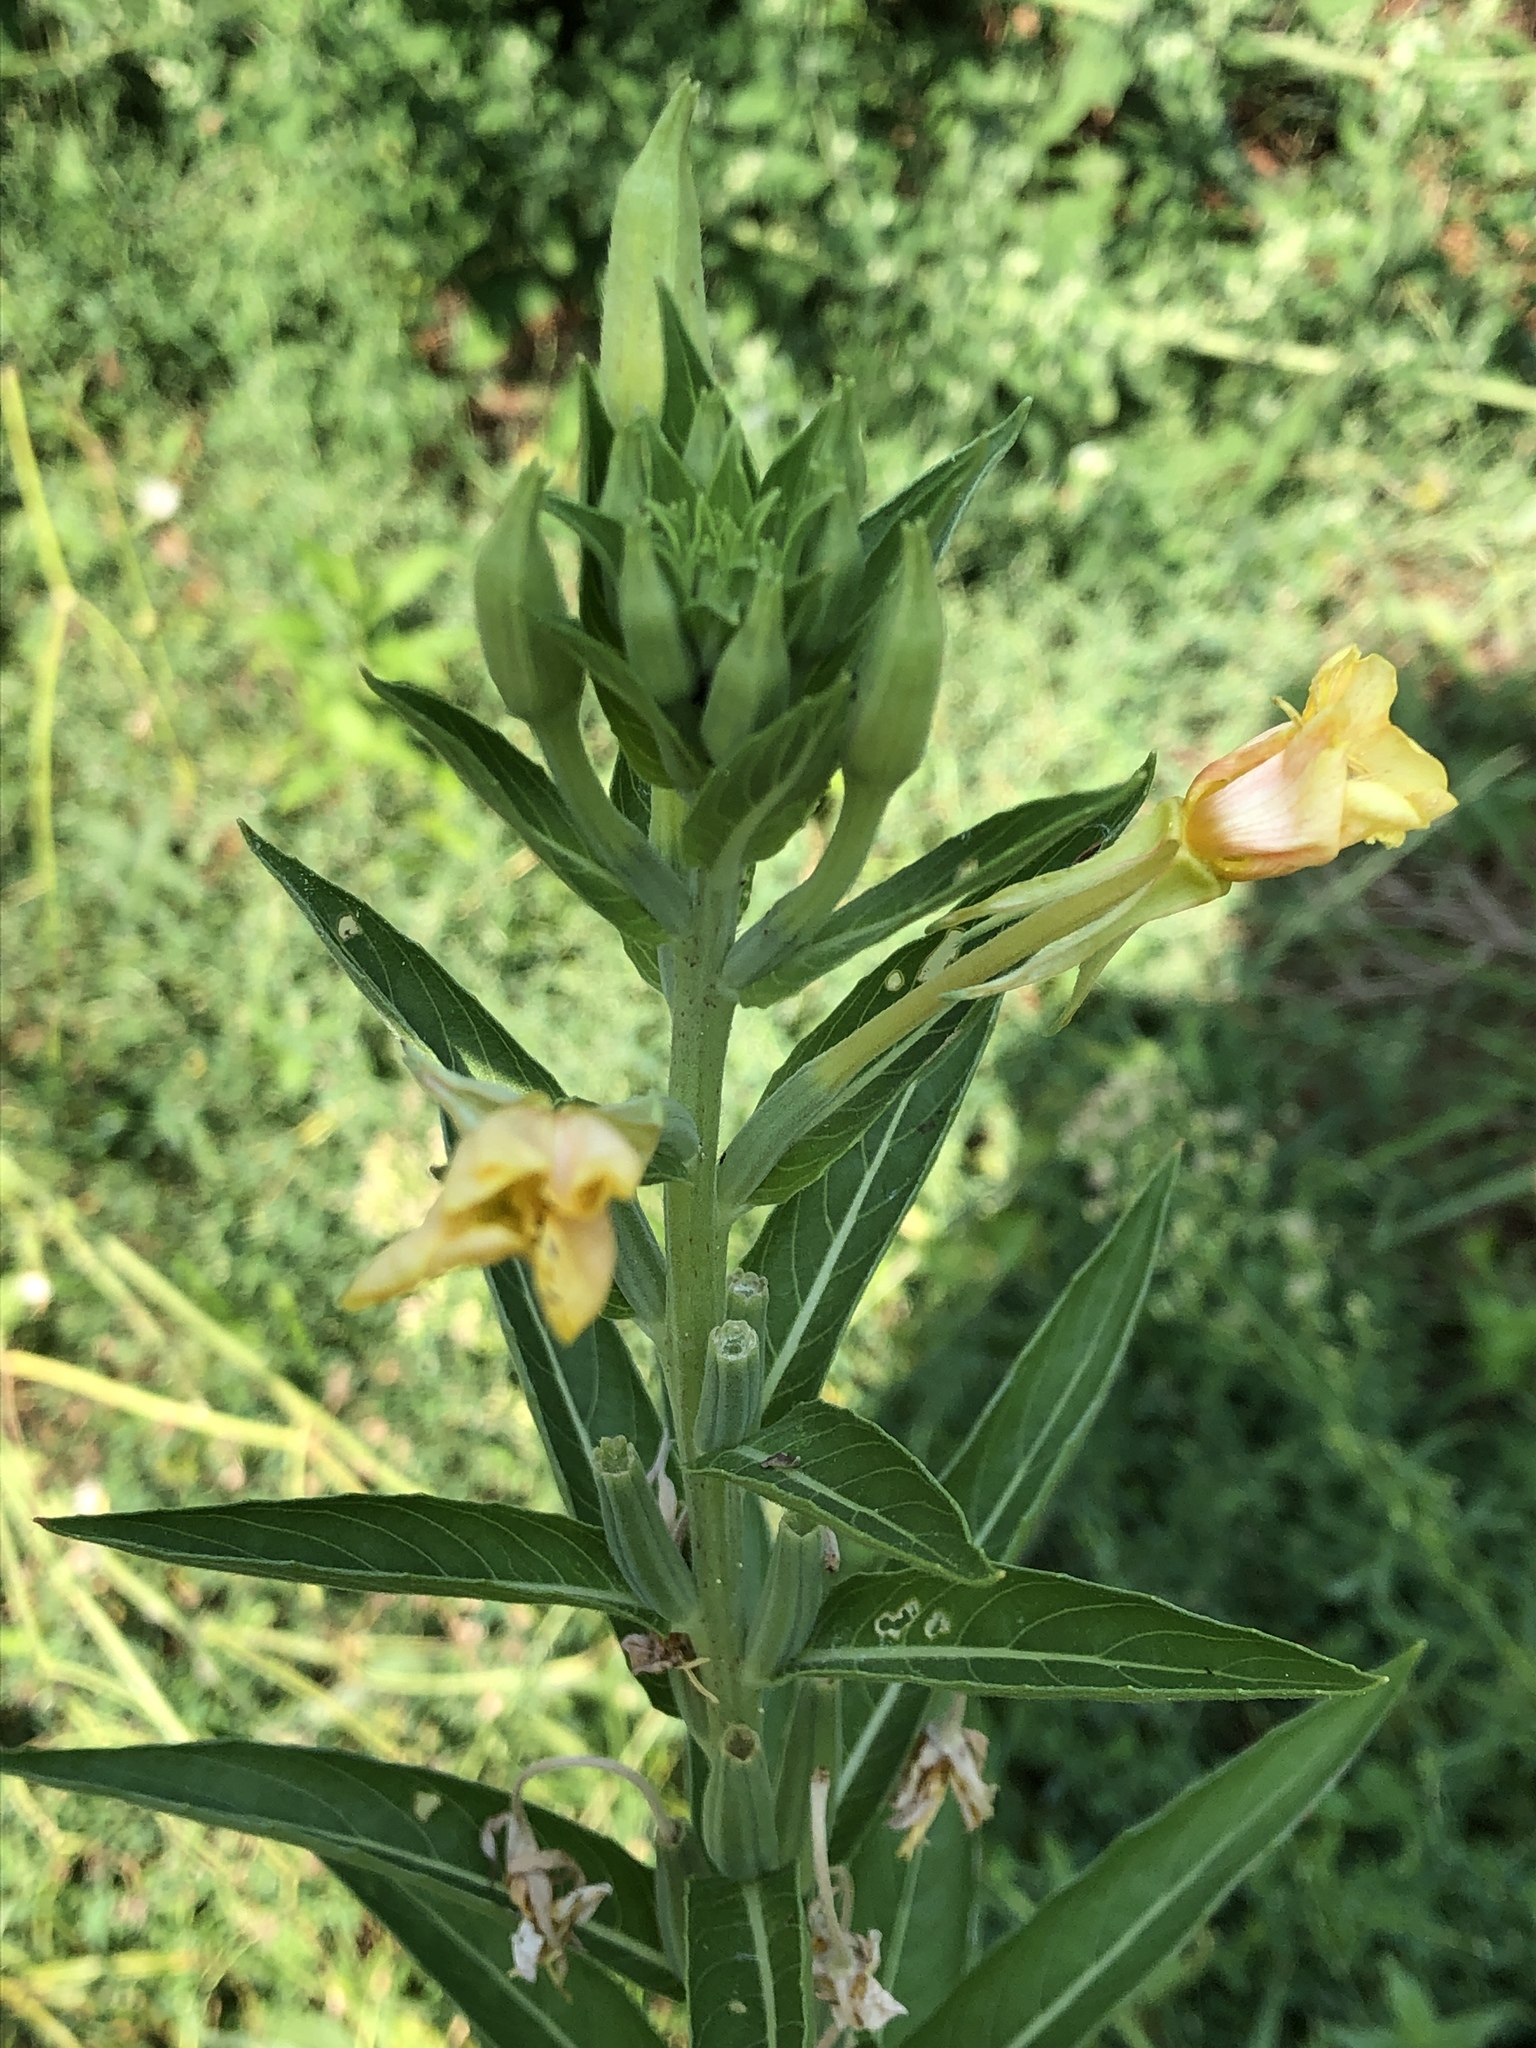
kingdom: Plantae
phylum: Tracheophyta
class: Magnoliopsida
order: Myrtales
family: Onagraceae
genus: Oenothera
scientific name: Oenothera biennis
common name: Common evening-primrose
